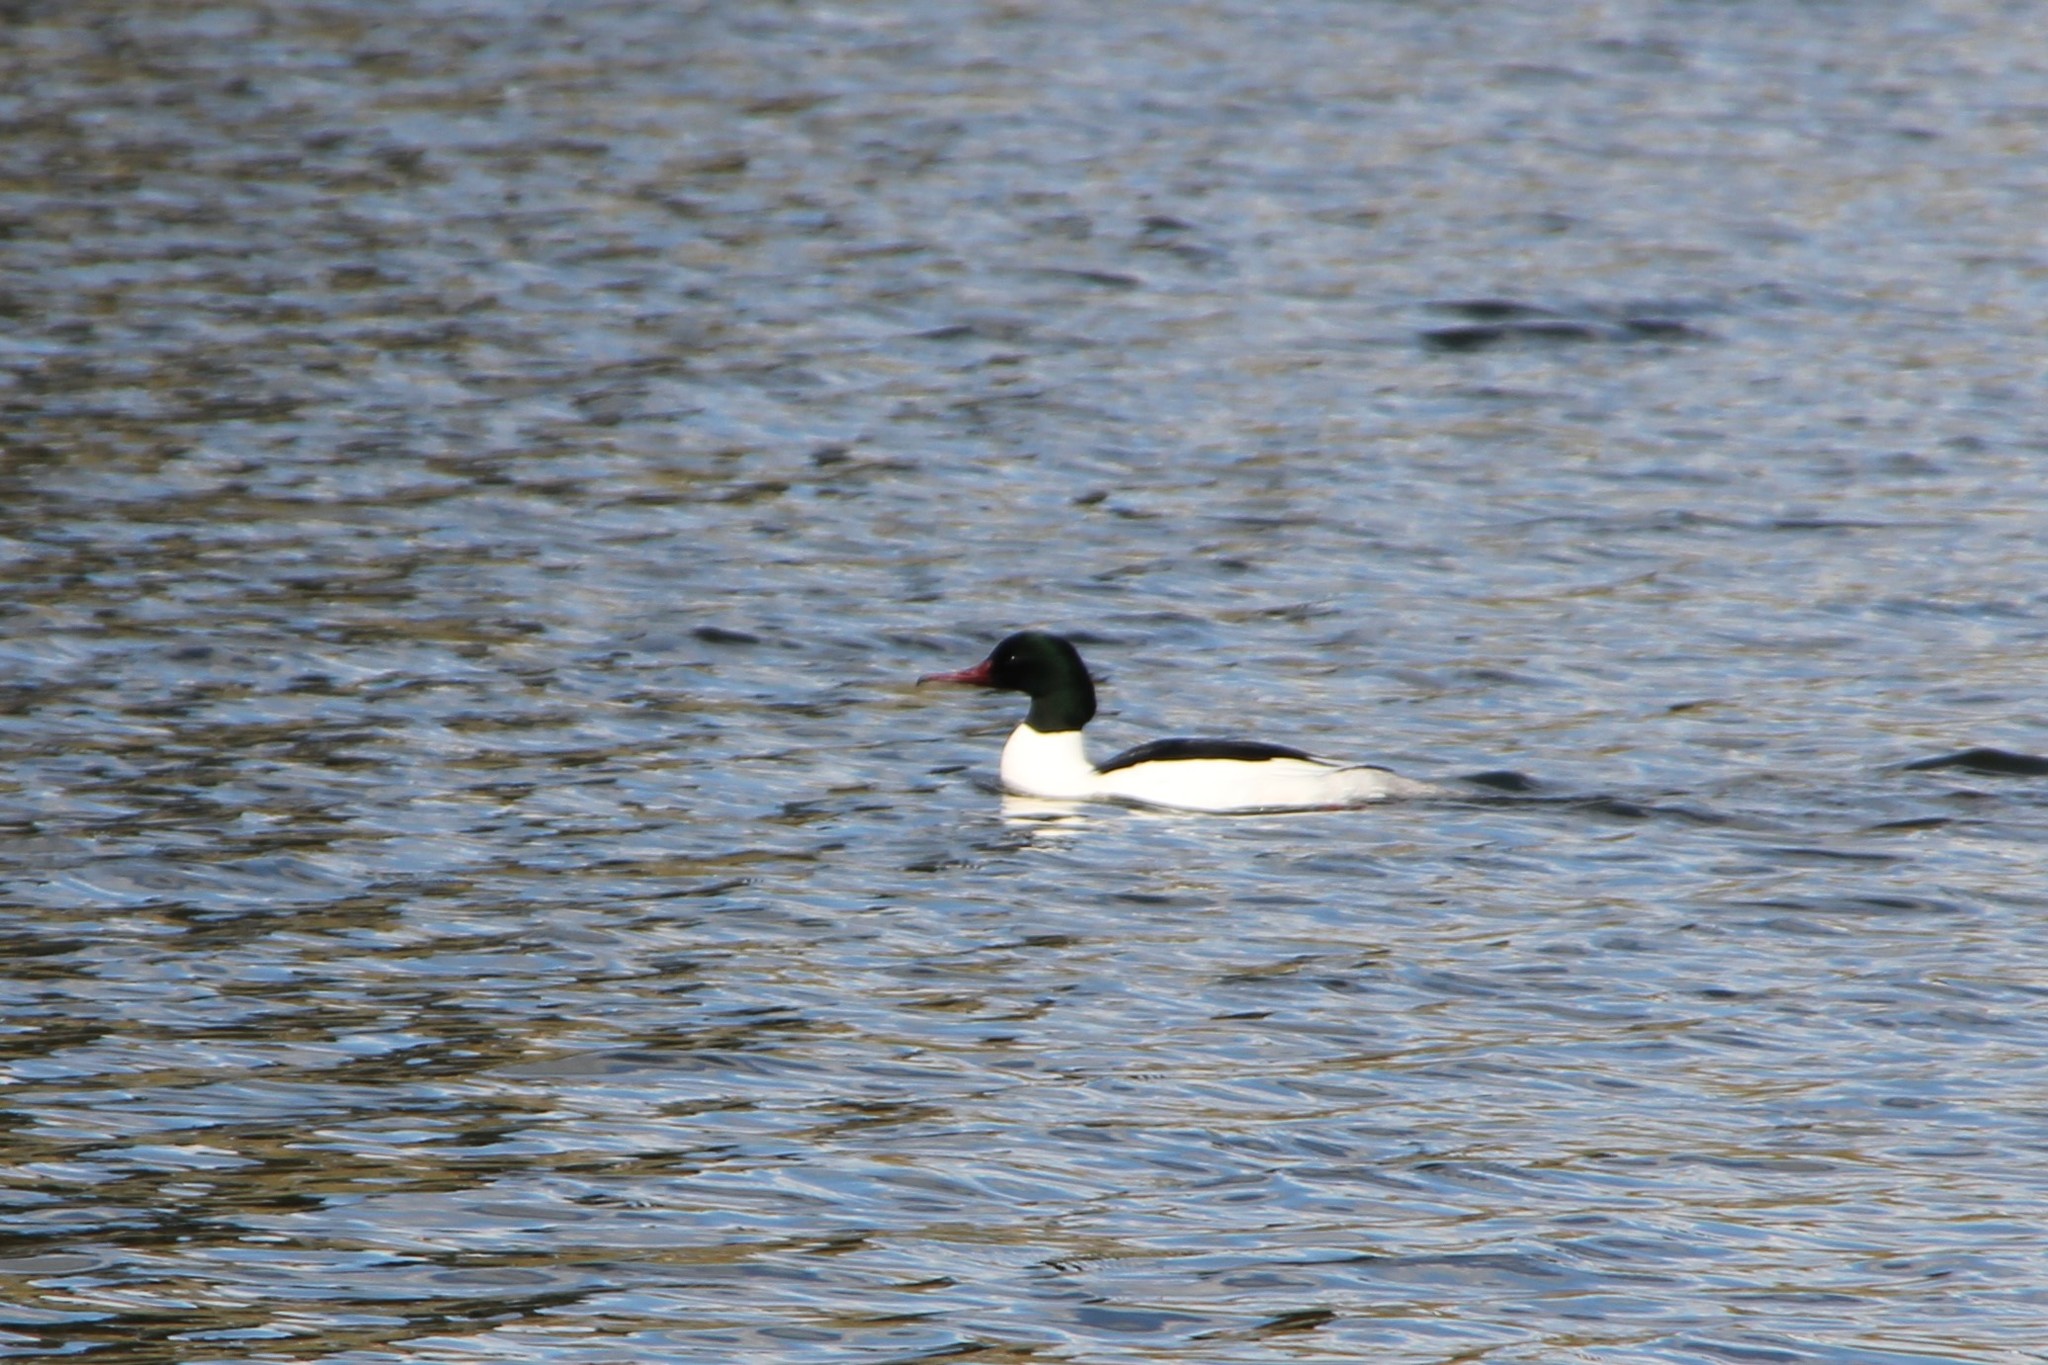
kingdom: Animalia
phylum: Chordata
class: Aves
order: Anseriformes
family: Anatidae
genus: Mergus
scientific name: Mergus merganser
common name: Common merganser
